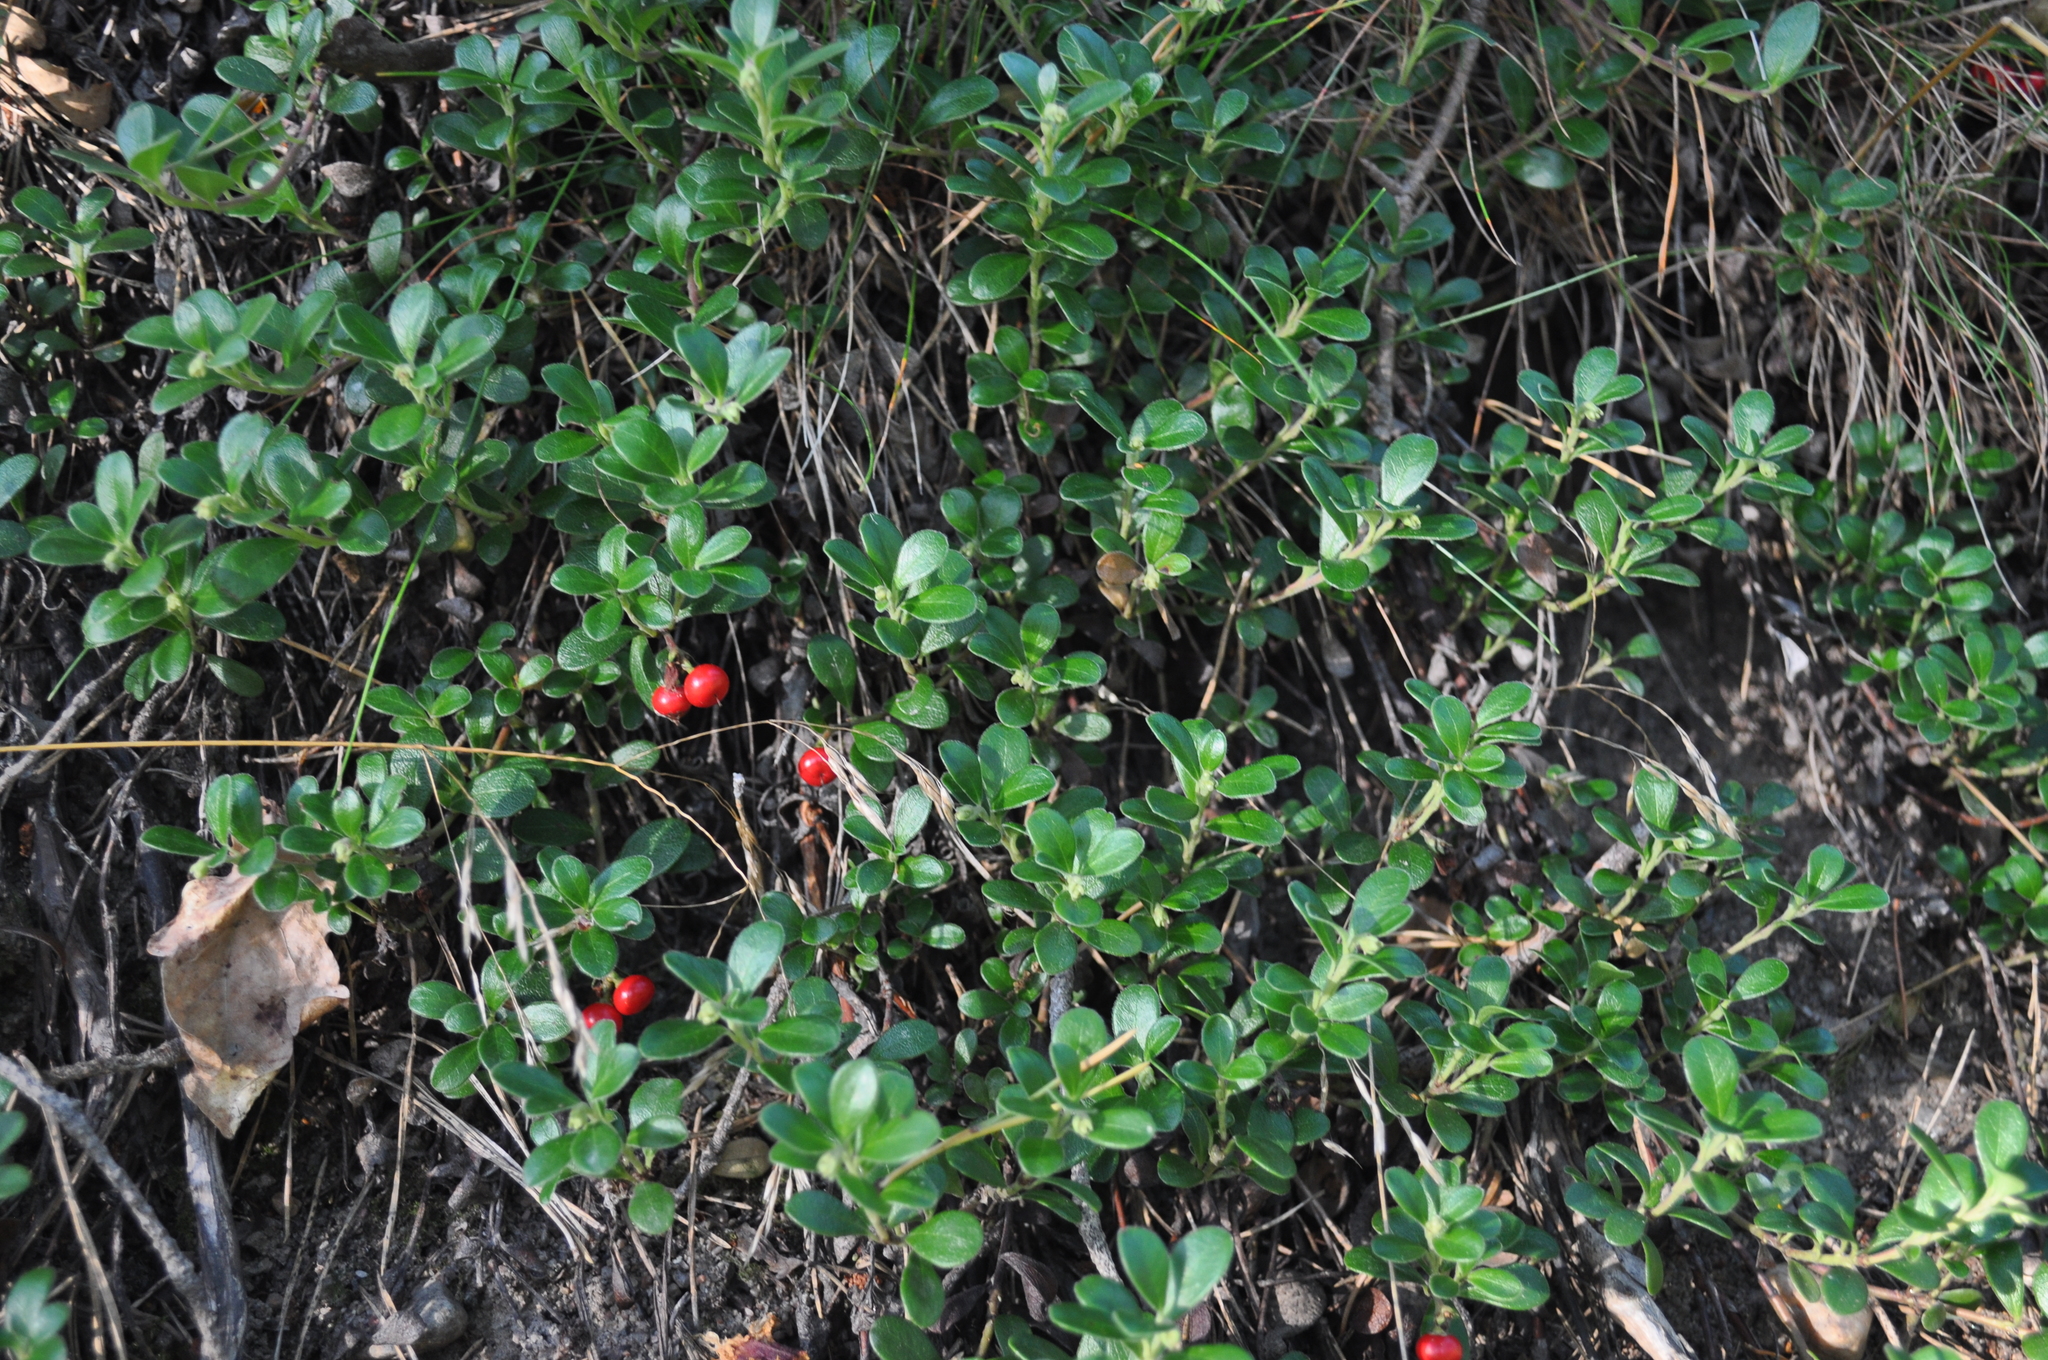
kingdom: Plantae
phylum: Tracheophyta
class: Magnoliopsida
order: Ericales
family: Ericaceae
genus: Vaccinium
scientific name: Vaccinium vitis-idaea
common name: Cowberry
